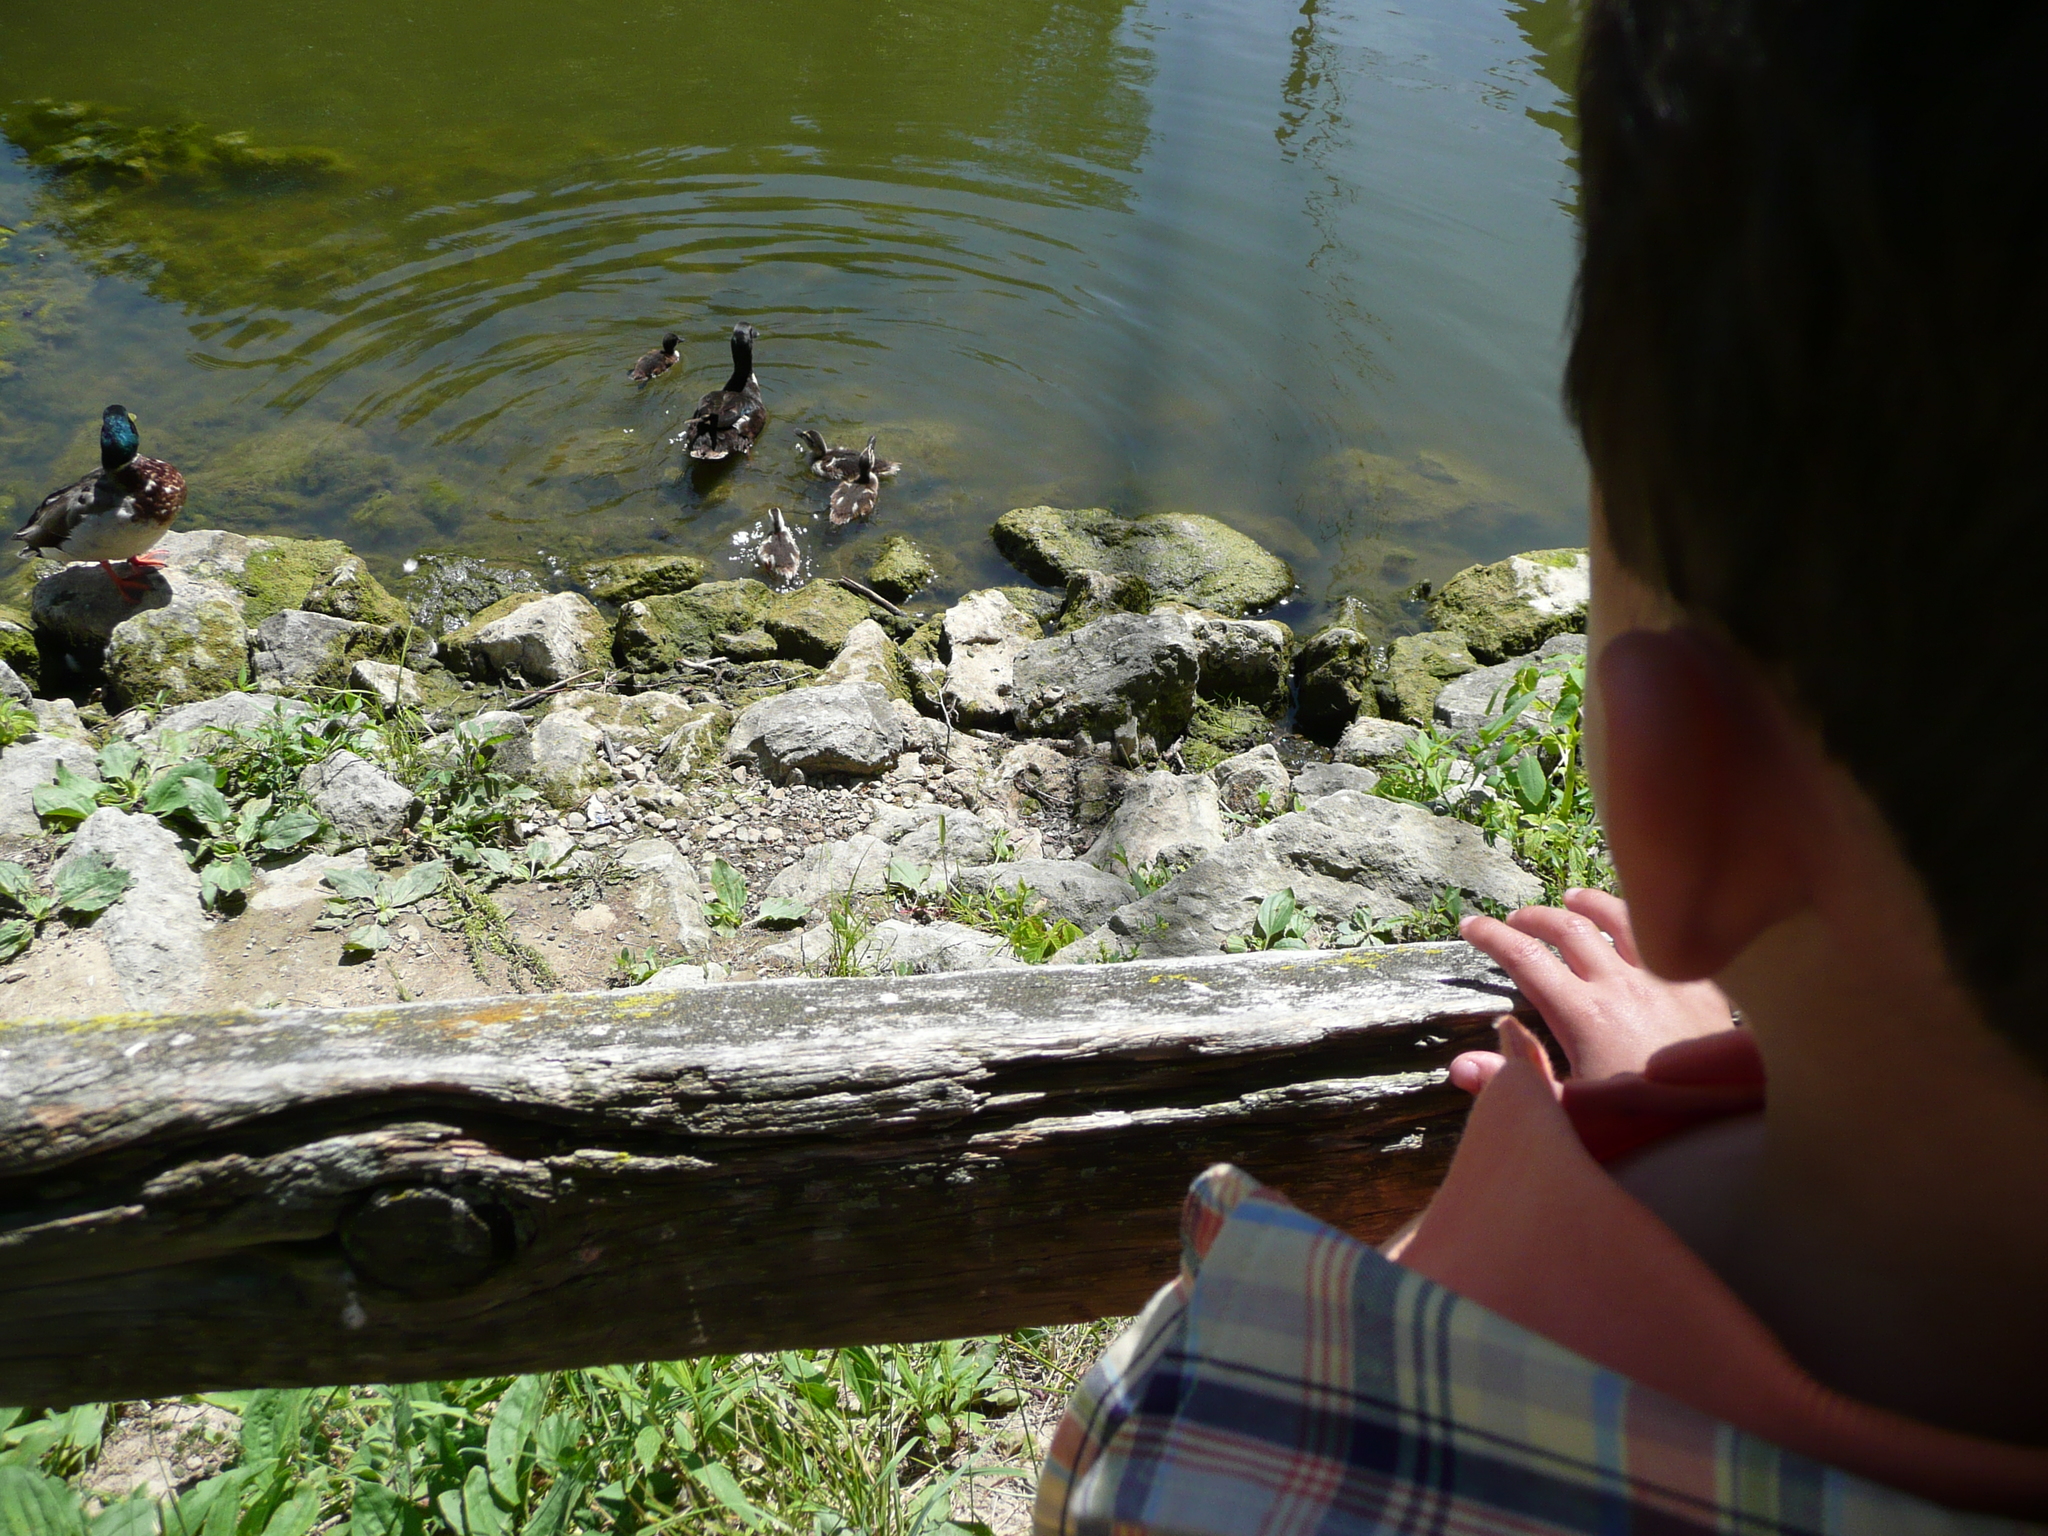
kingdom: Animalia
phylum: Chordata
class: Aves
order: Anseriformes
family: Anatidae
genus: Anas
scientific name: Anas platyrhynchos
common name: Mallard
